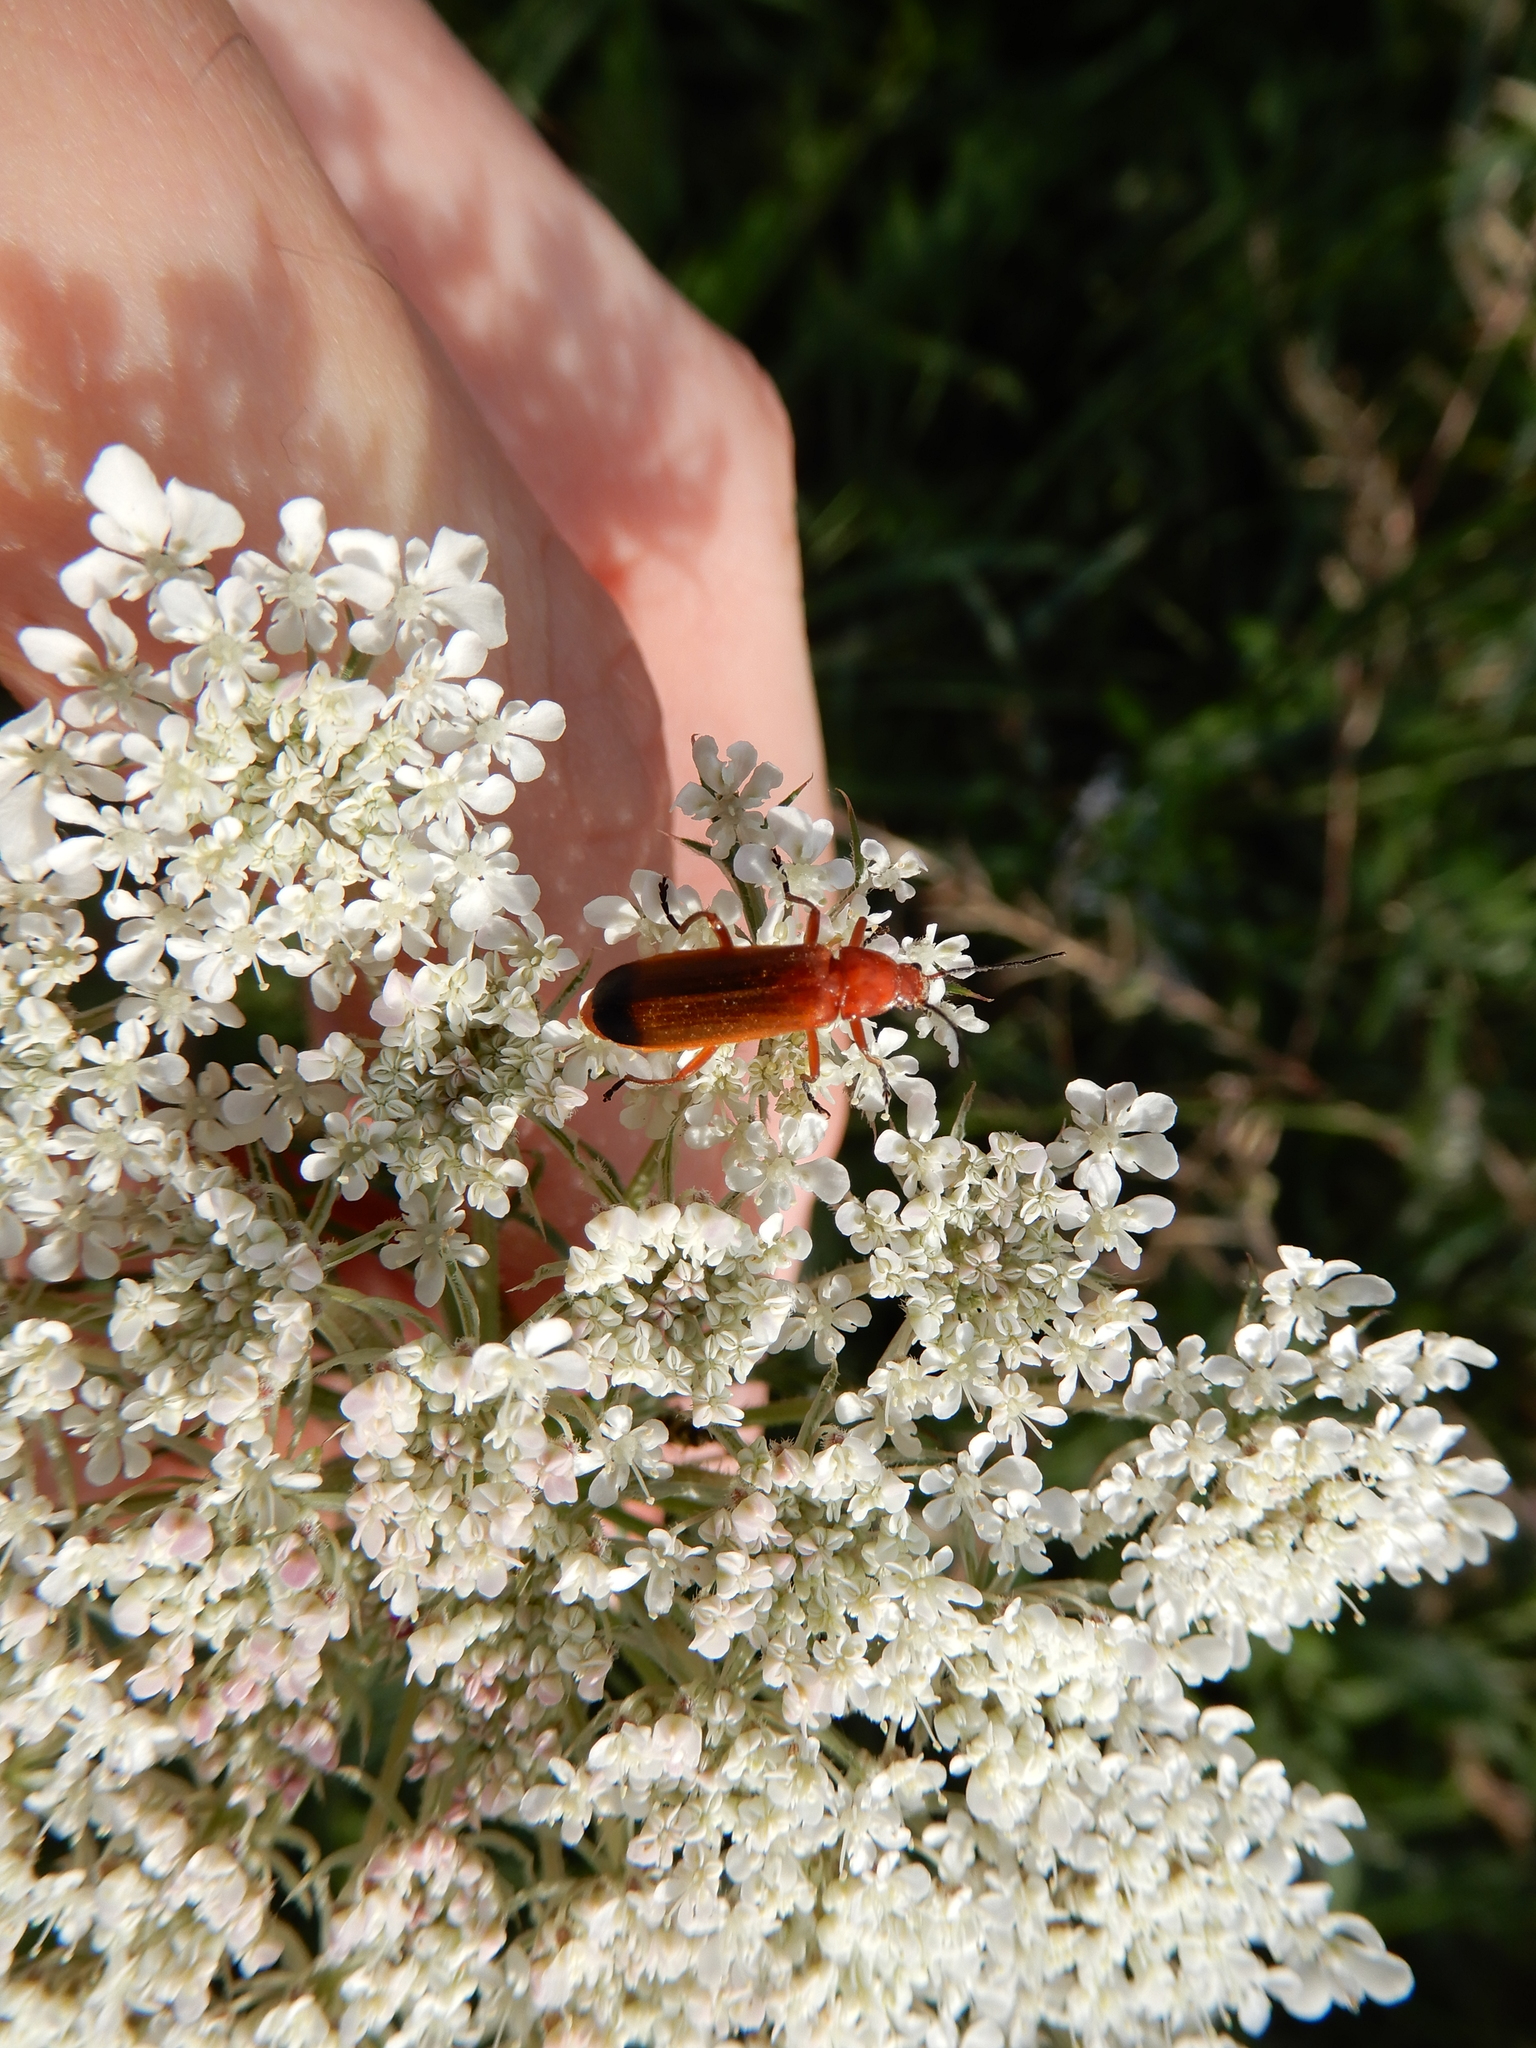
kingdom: Animalia
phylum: Arthropoda
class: Insecta
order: Coleoptera
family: Cantharidae
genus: Rhagonycha
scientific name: Rhagonycha fulva
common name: Common red soldier beetle
